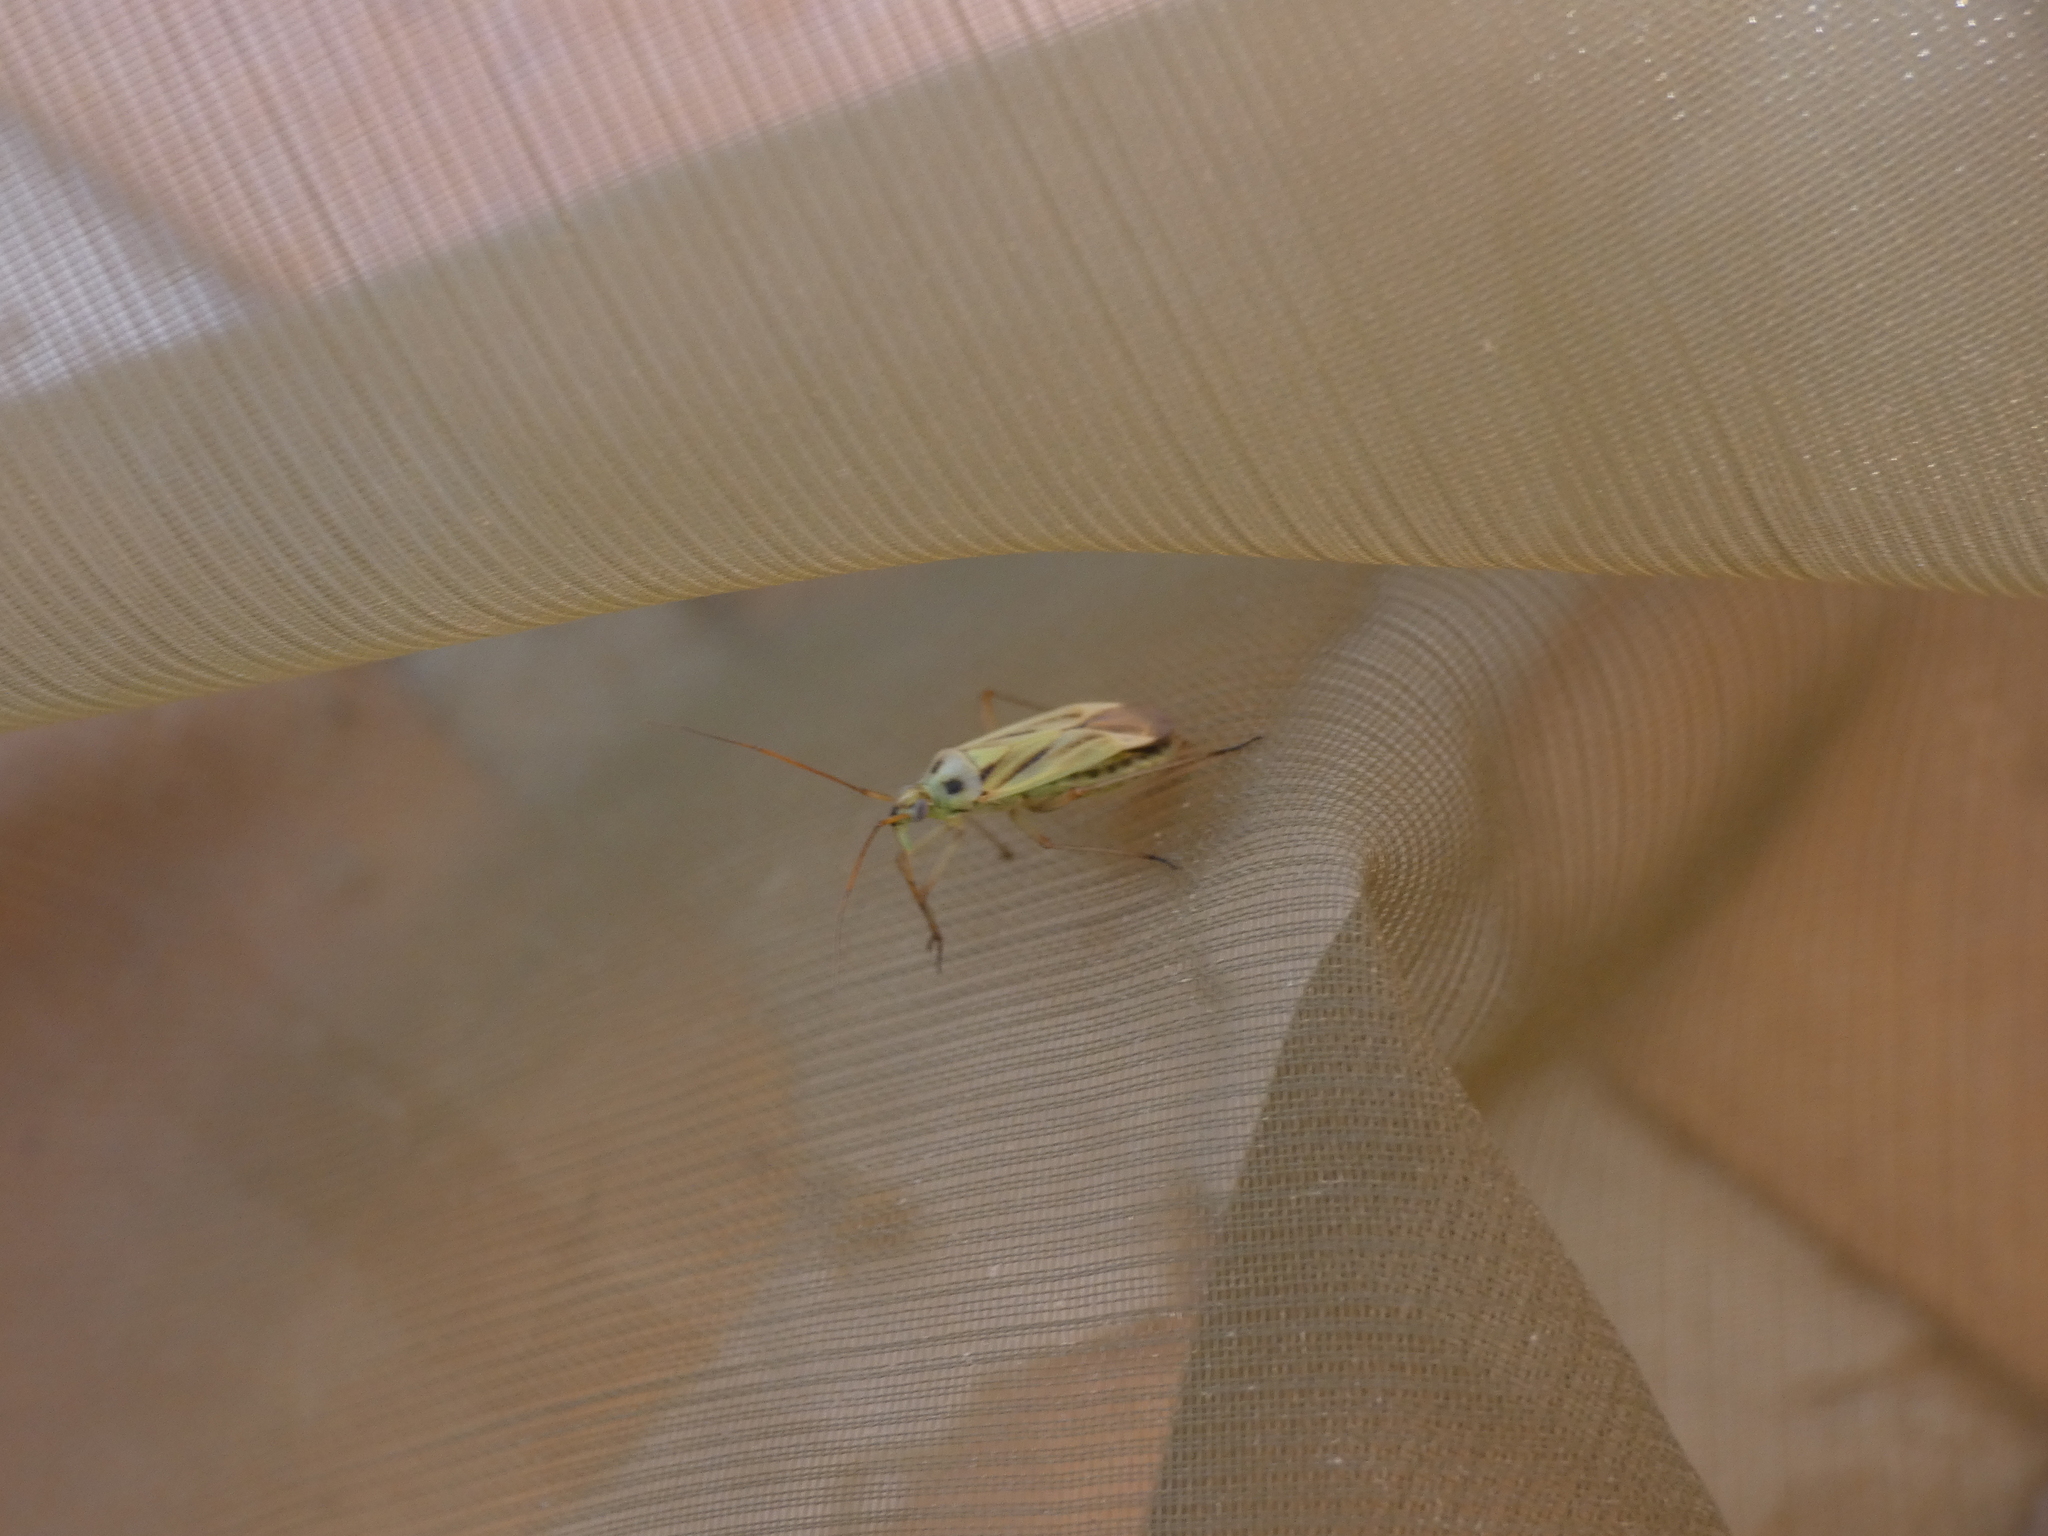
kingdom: Animalia
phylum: Arthropoda
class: Insecta
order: Hemiptera
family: Miridae
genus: Stenotus
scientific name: Stenotus binotatus
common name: Plant bug
